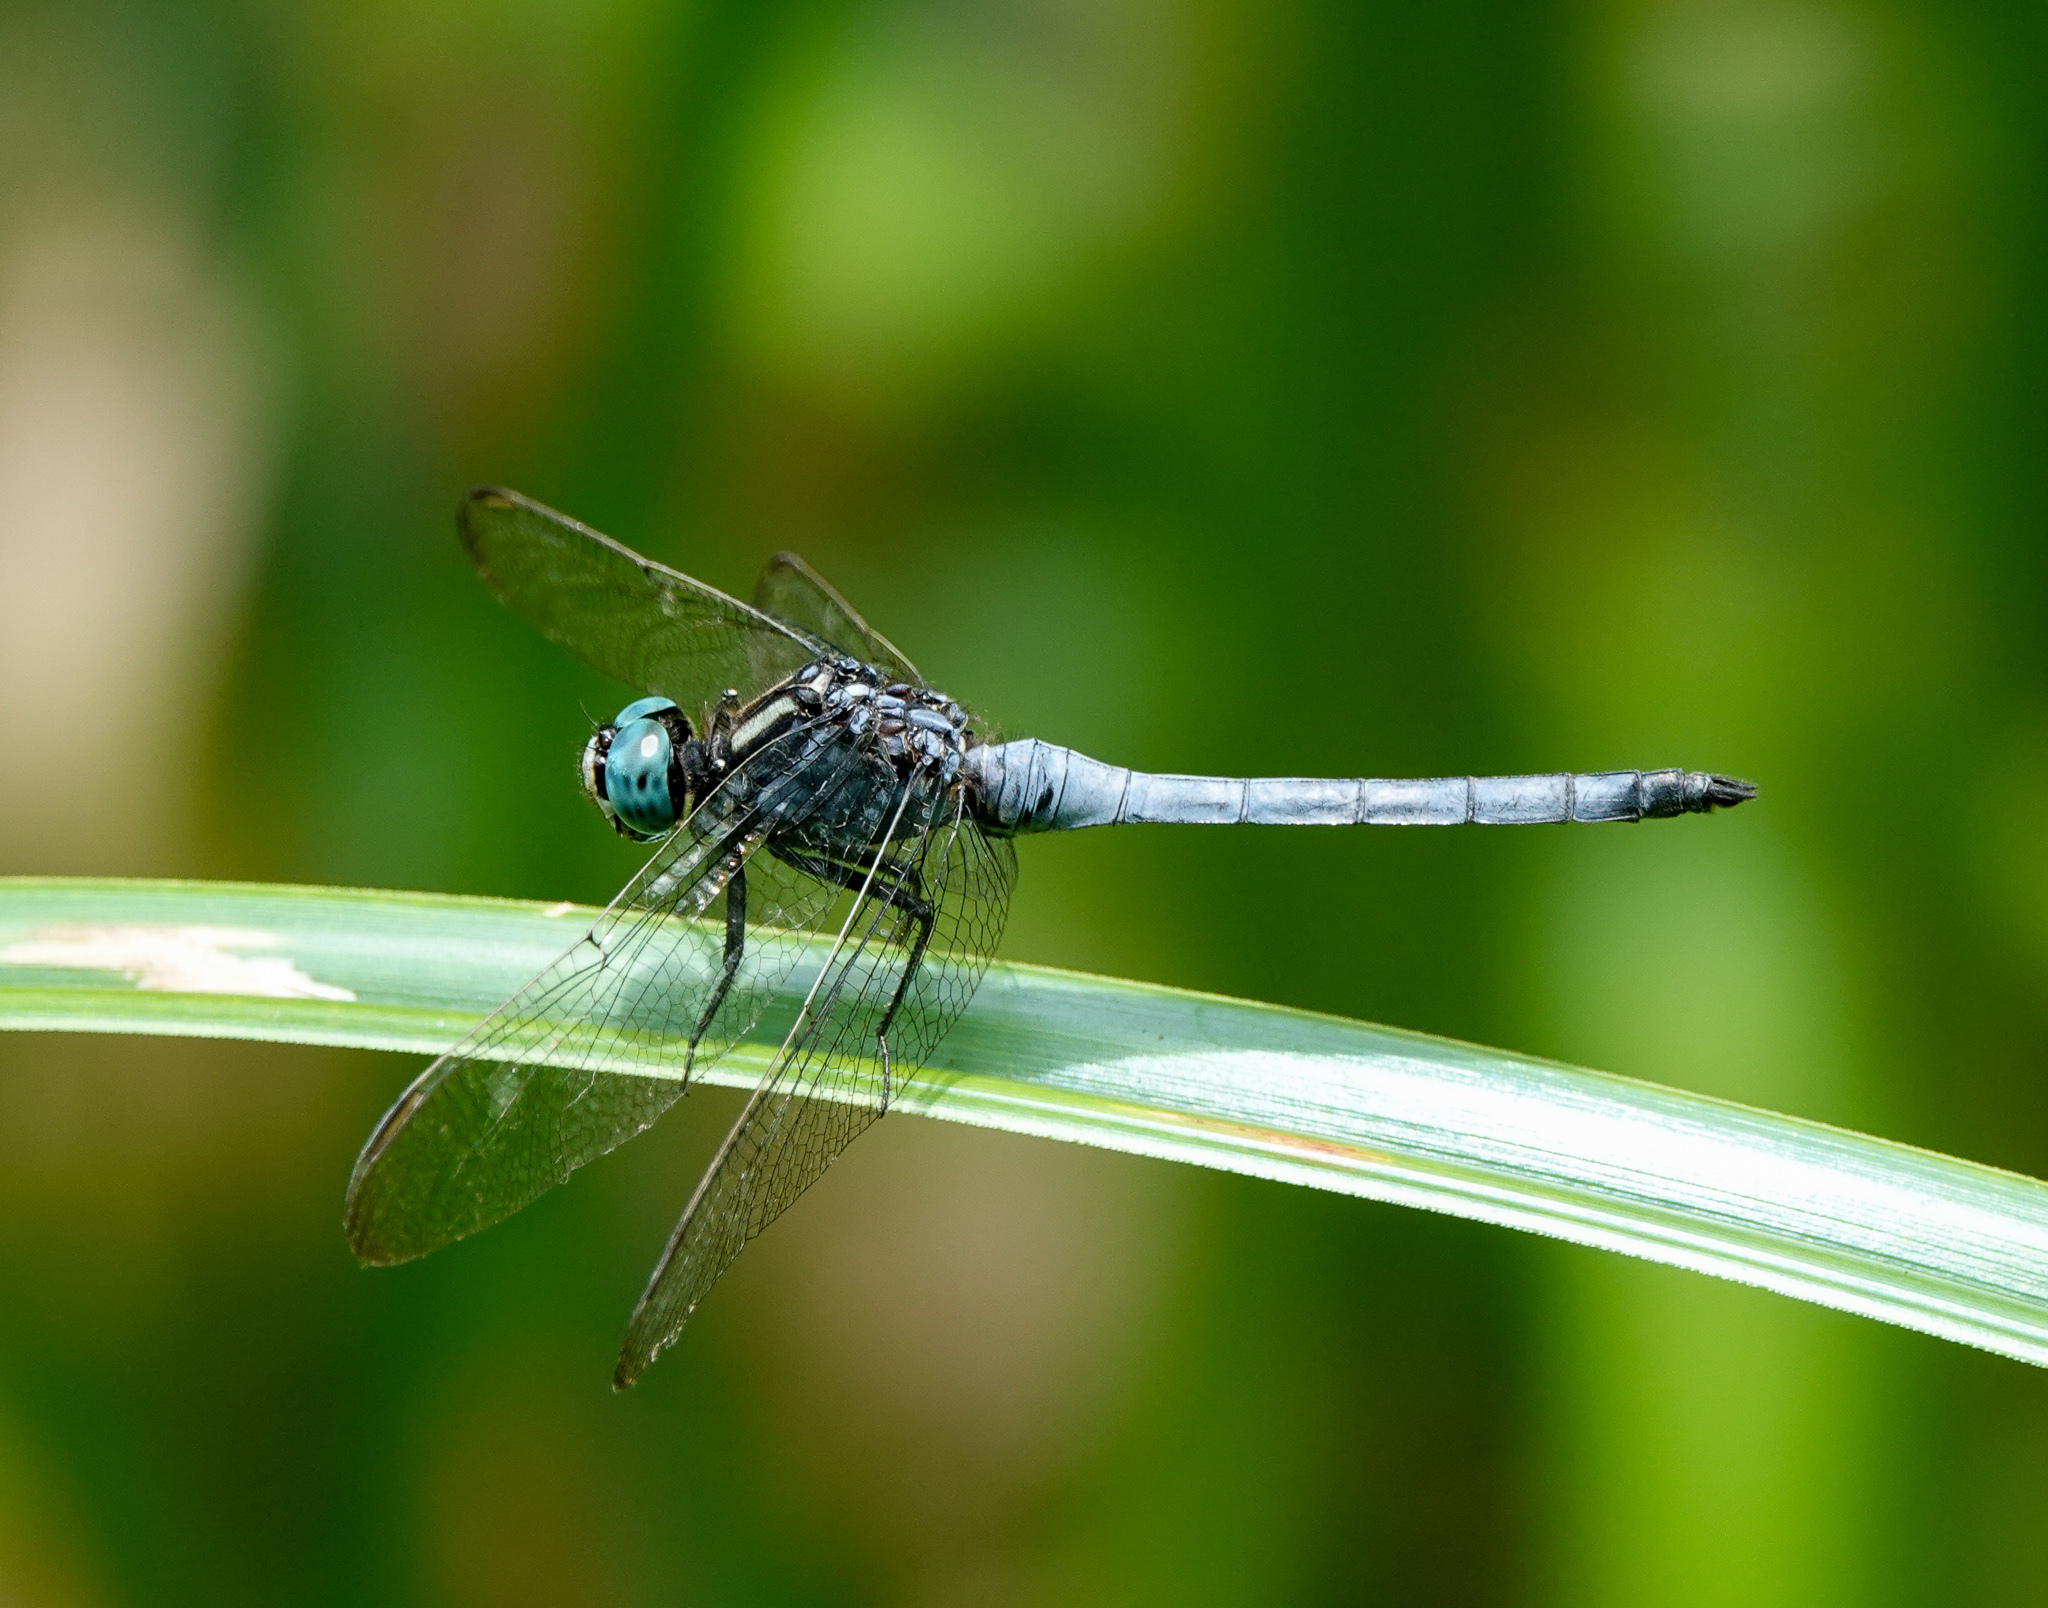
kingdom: Animalia
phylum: Arthropoda
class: Insecta
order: Odonata
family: Libellulidae
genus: Orthetrum
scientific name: Orthetrum luzonicum
